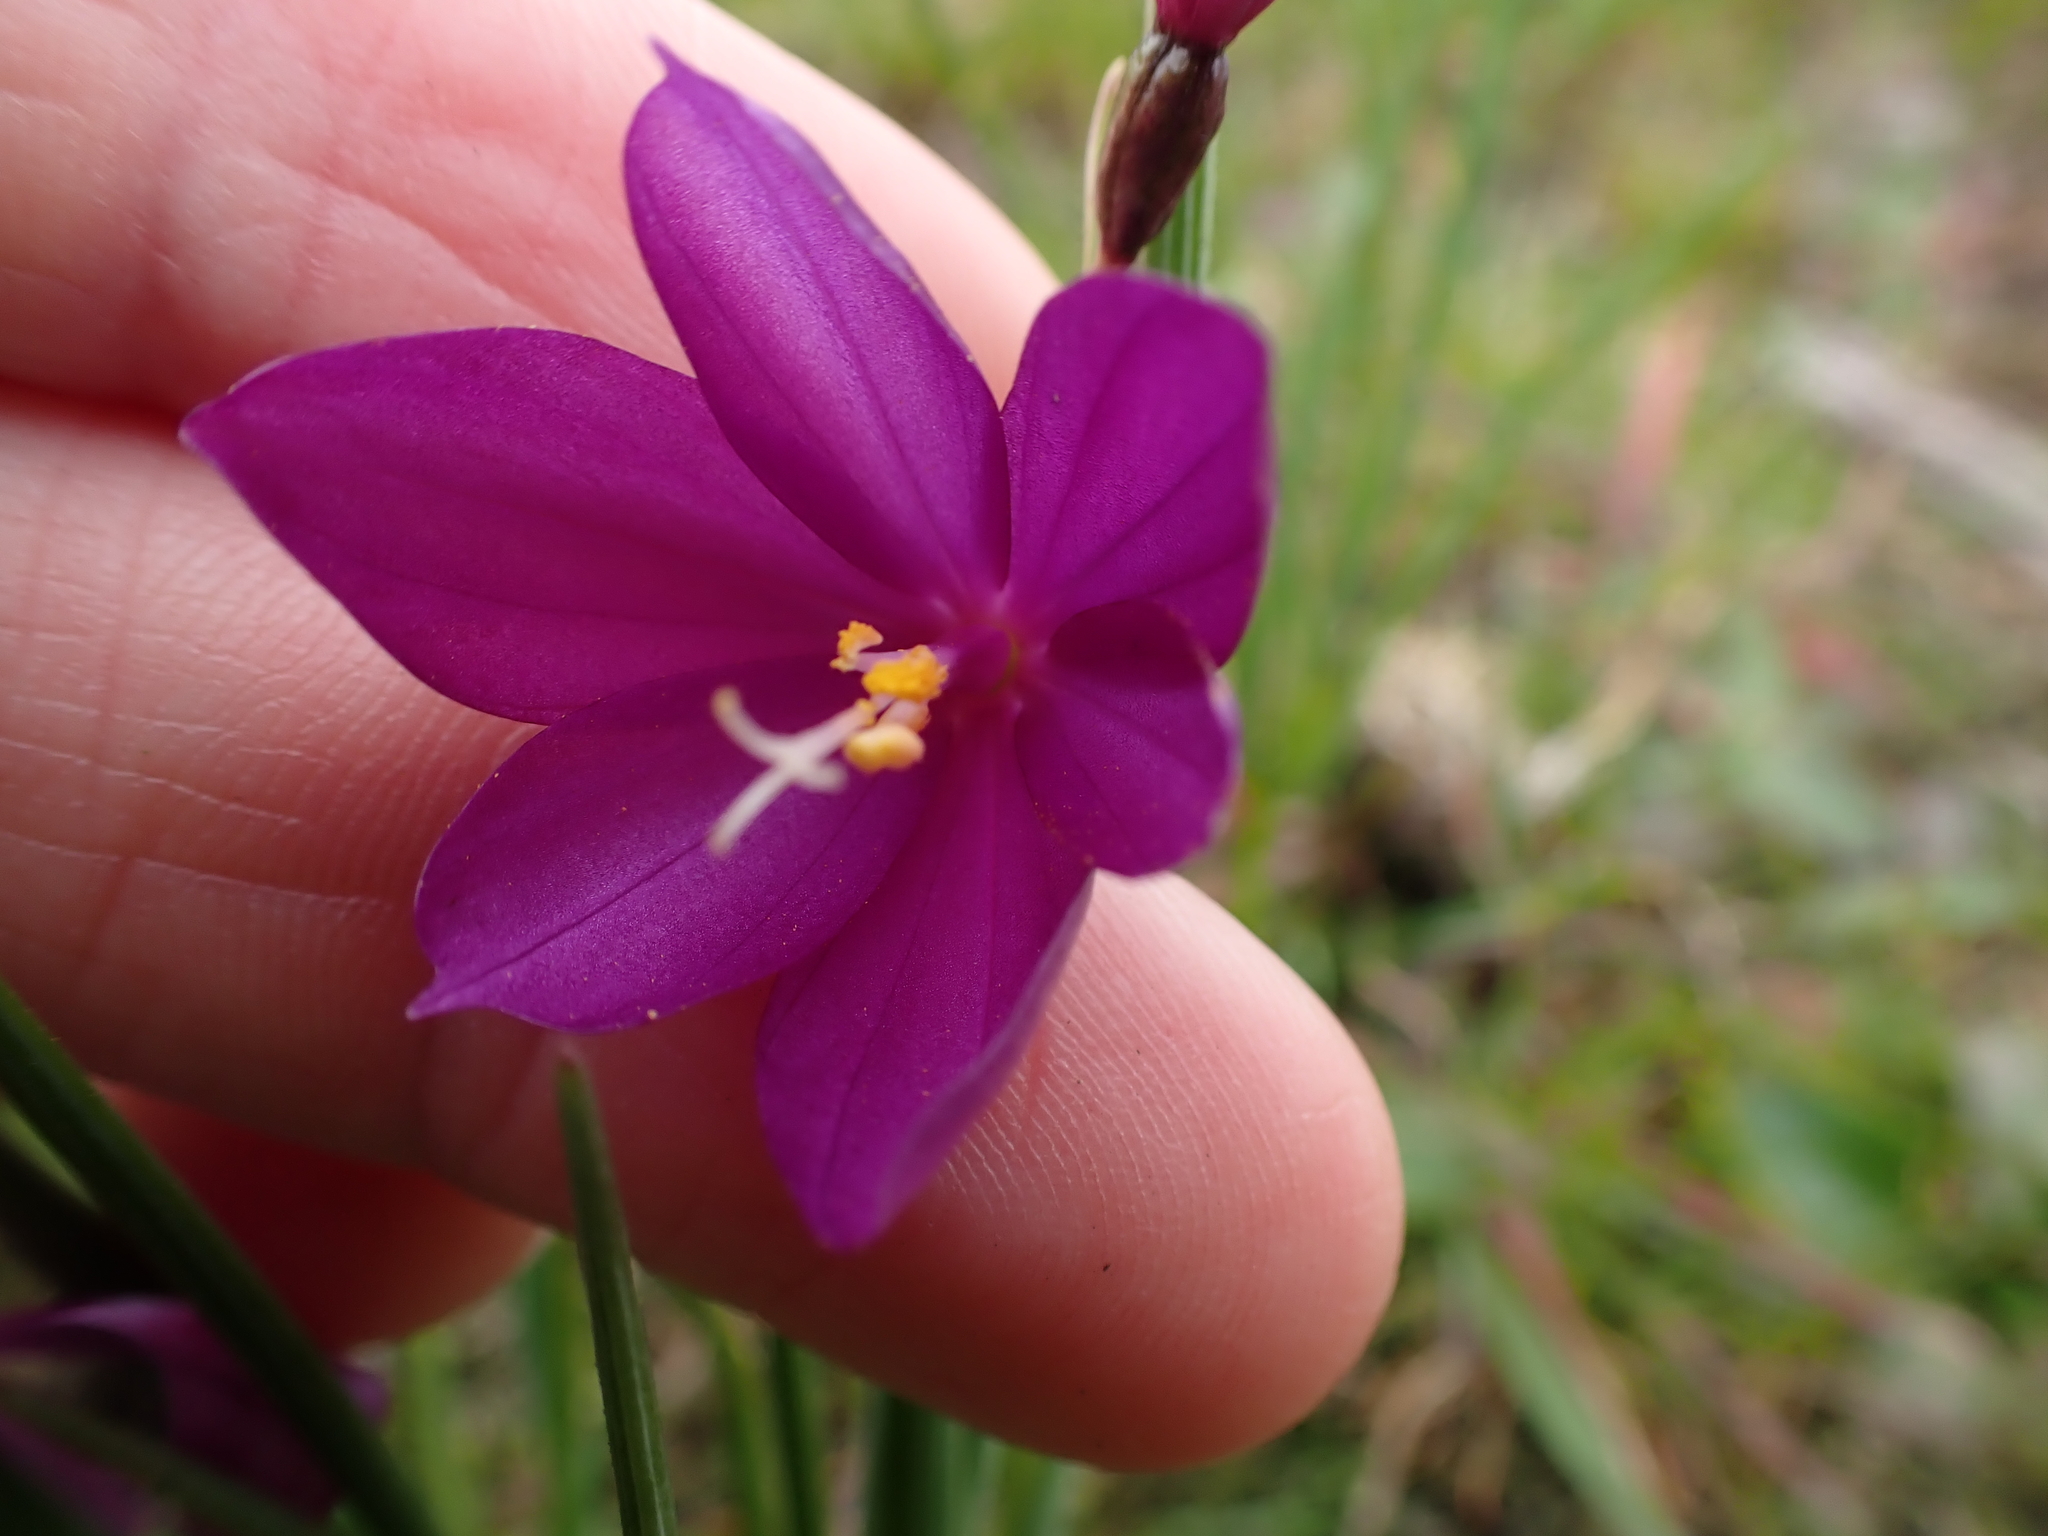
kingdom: Plantae
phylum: Tracheophyta
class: Liliopsida
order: Asparagales
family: Iridaceae
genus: Olsynium
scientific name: Olsynium douglasii
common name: Douglas' grasswidow
